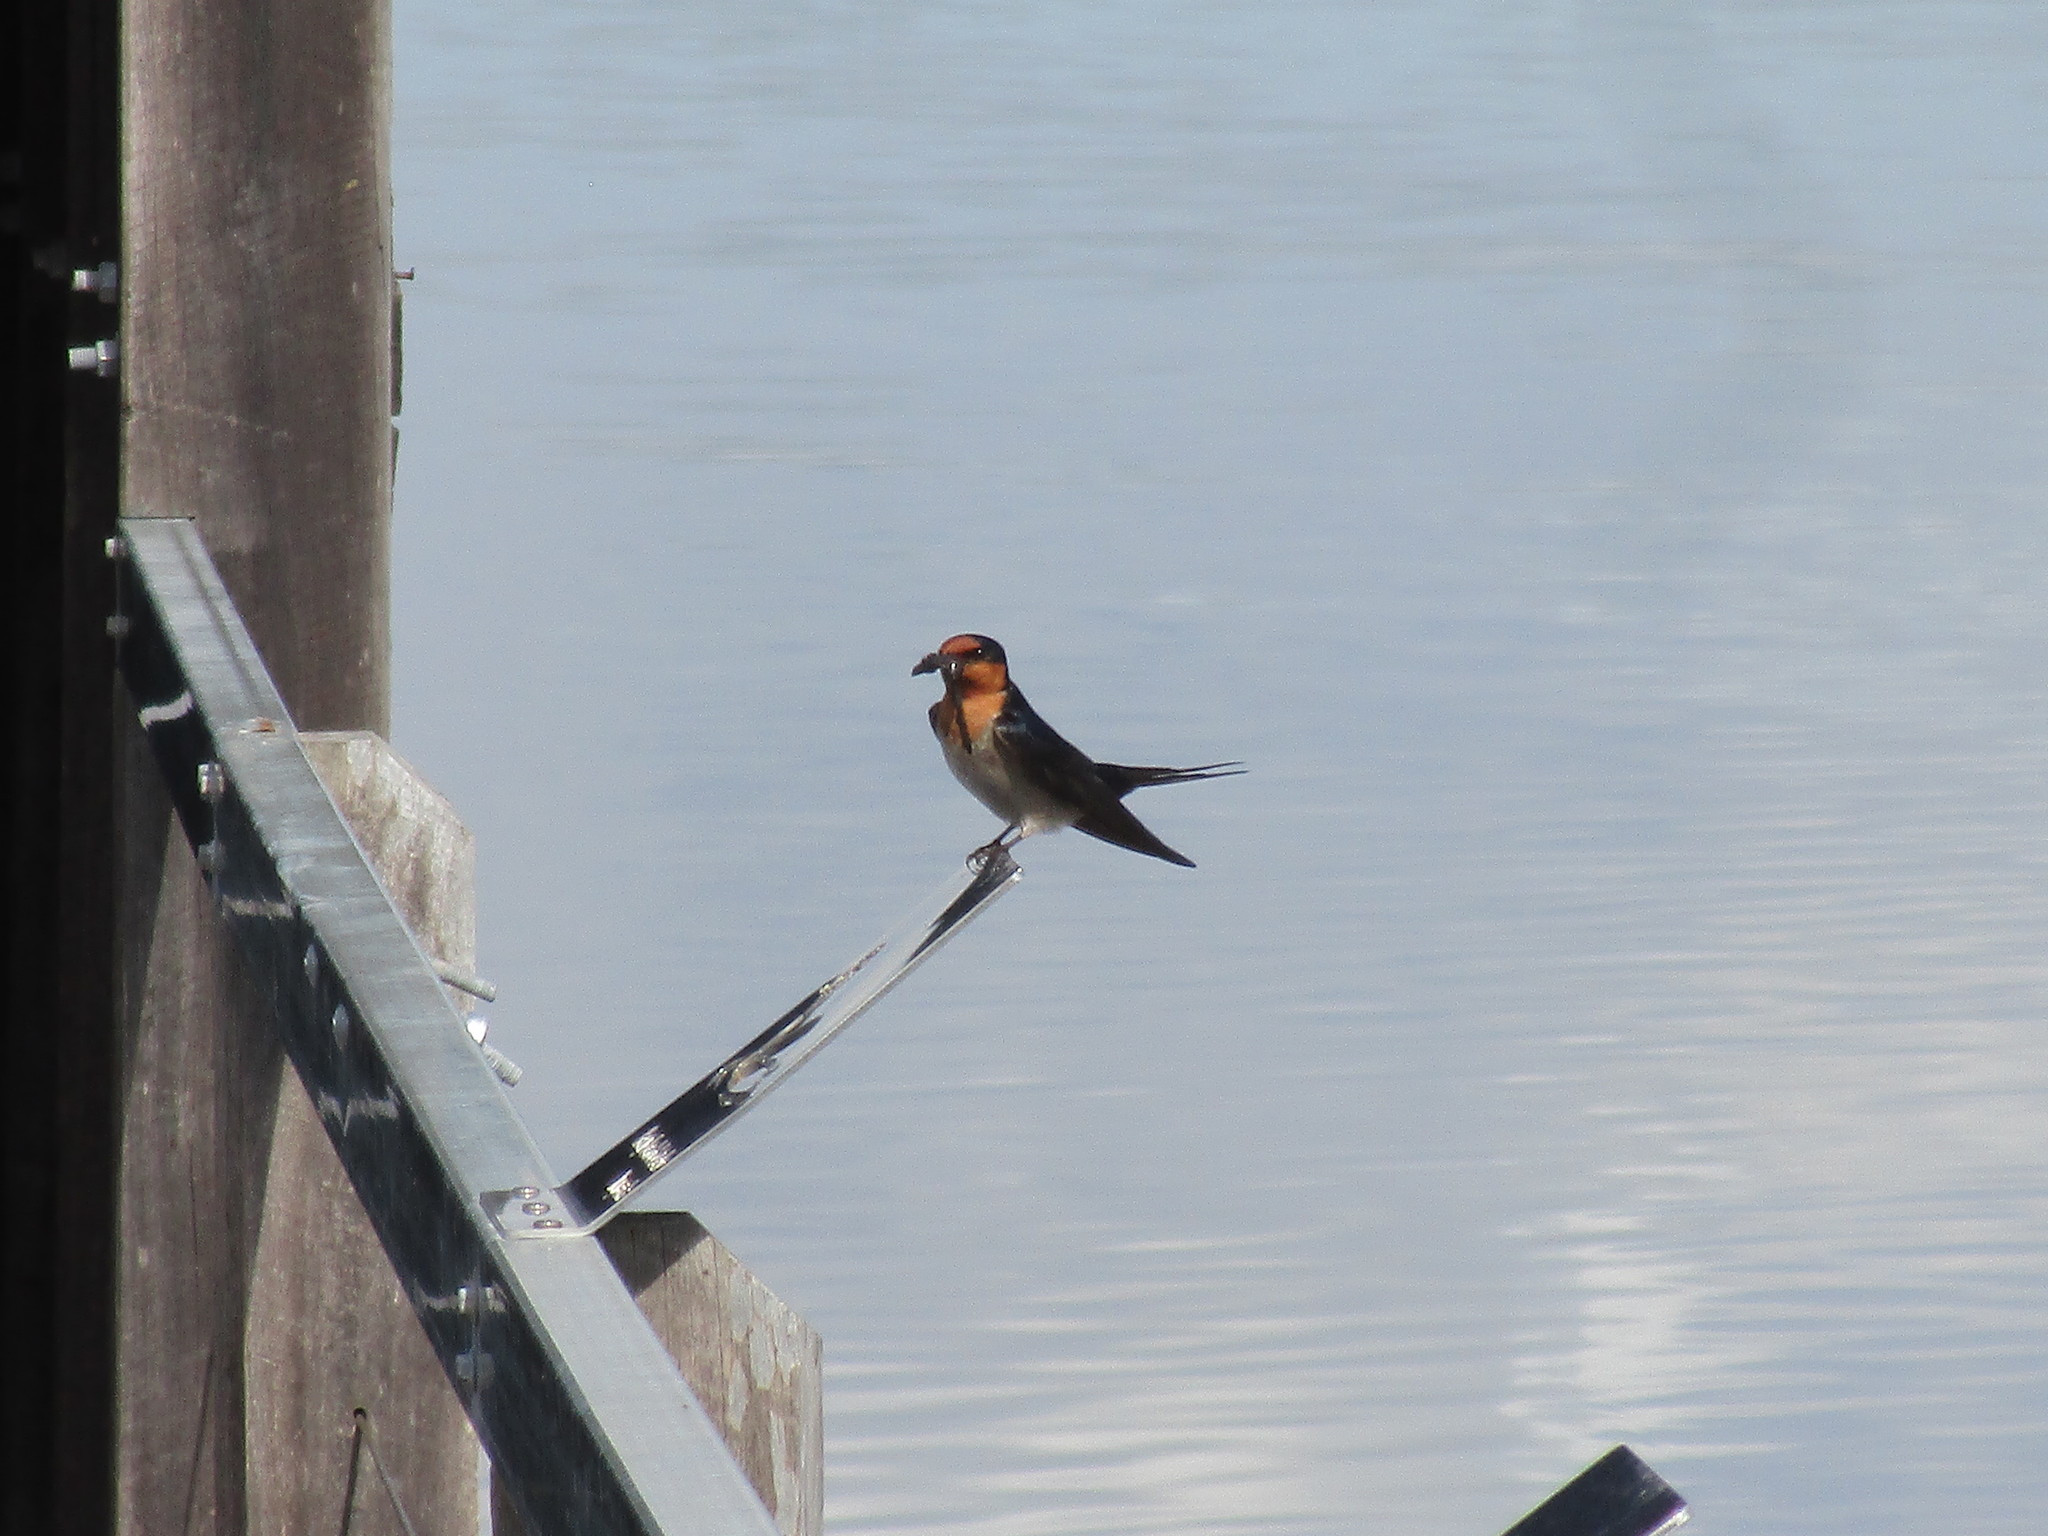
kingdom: Animalia
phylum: Chordata
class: Aves
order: Passeriformes
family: Hirundinidae
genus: Hirundo
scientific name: Hirundo neoxena
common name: Welcome swallow
